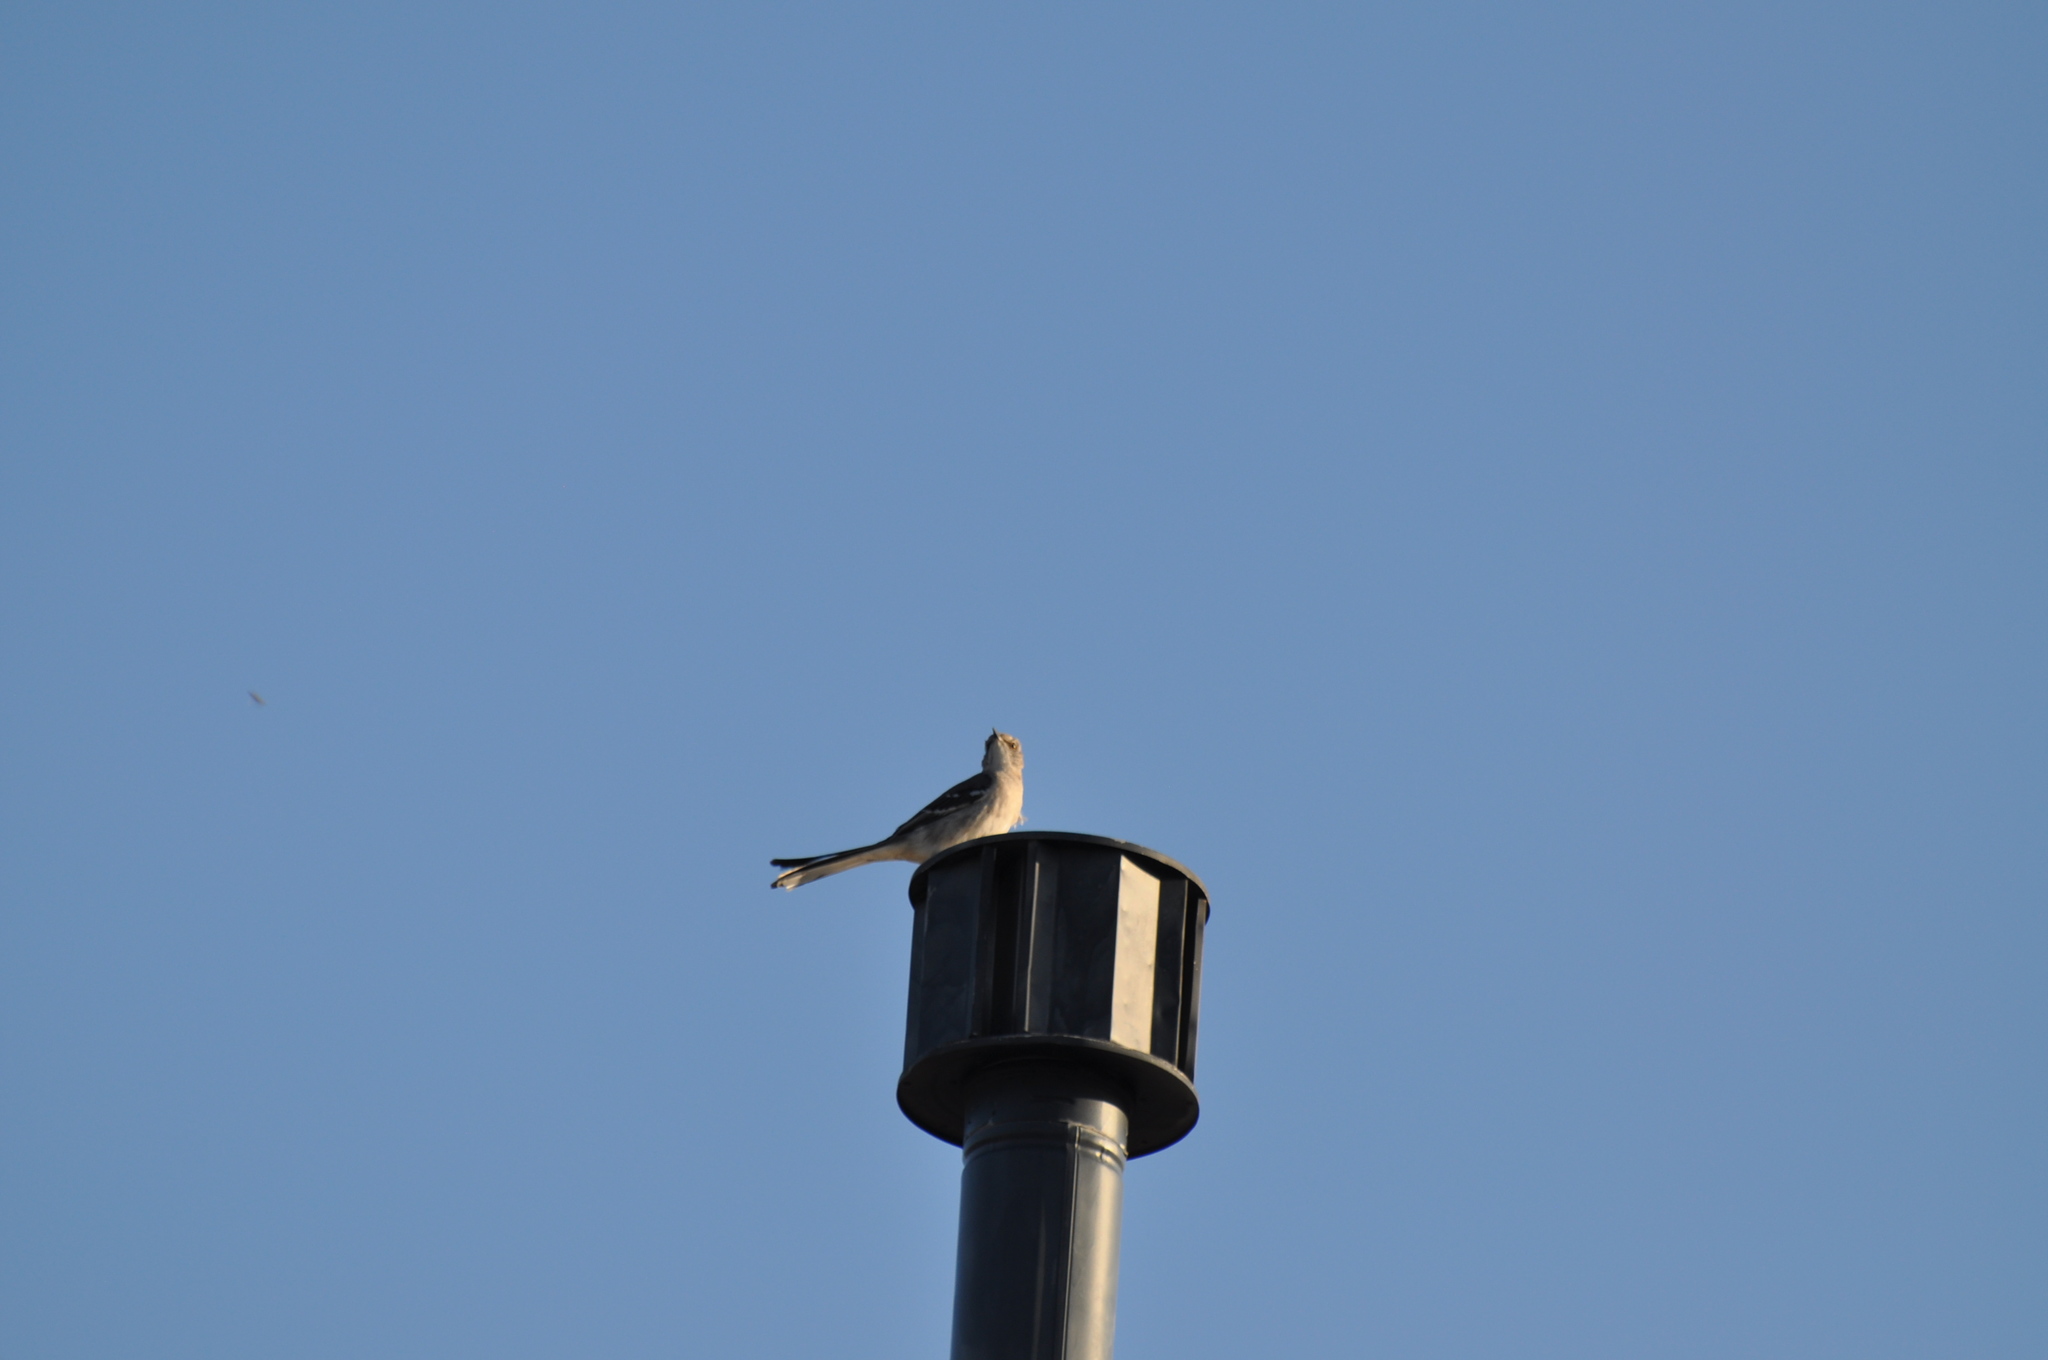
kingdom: Animalia
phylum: Chordata
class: Aves
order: Passeriformes
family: Mimidae
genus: Mimus
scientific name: Mimus polyglottos
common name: Northern mockingbird
